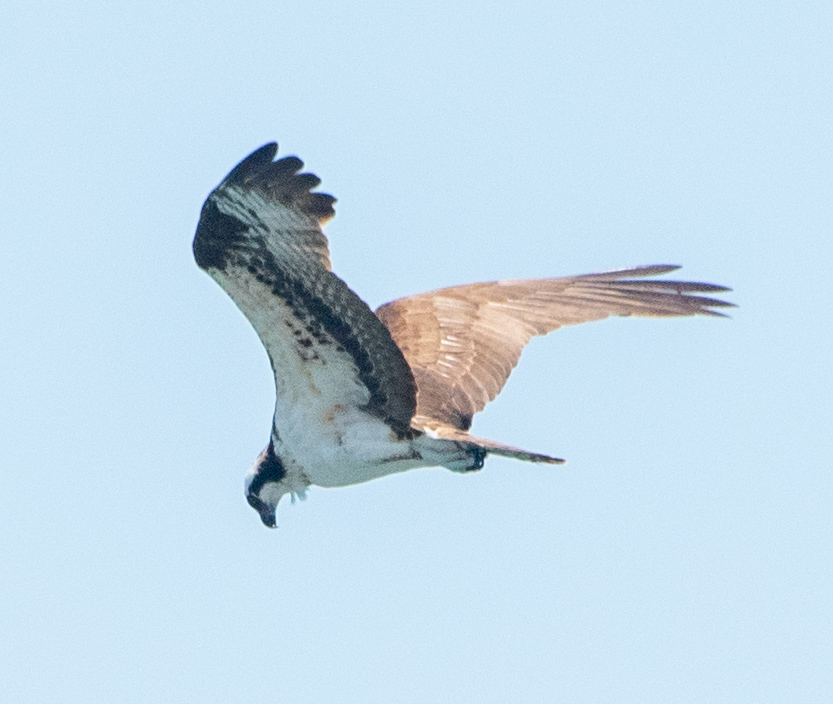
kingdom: Animalia
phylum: Chordata
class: Aves
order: Accipitriformes
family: Pandionidae
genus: Pandion
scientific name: Pandion haliaetus
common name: Osprey
